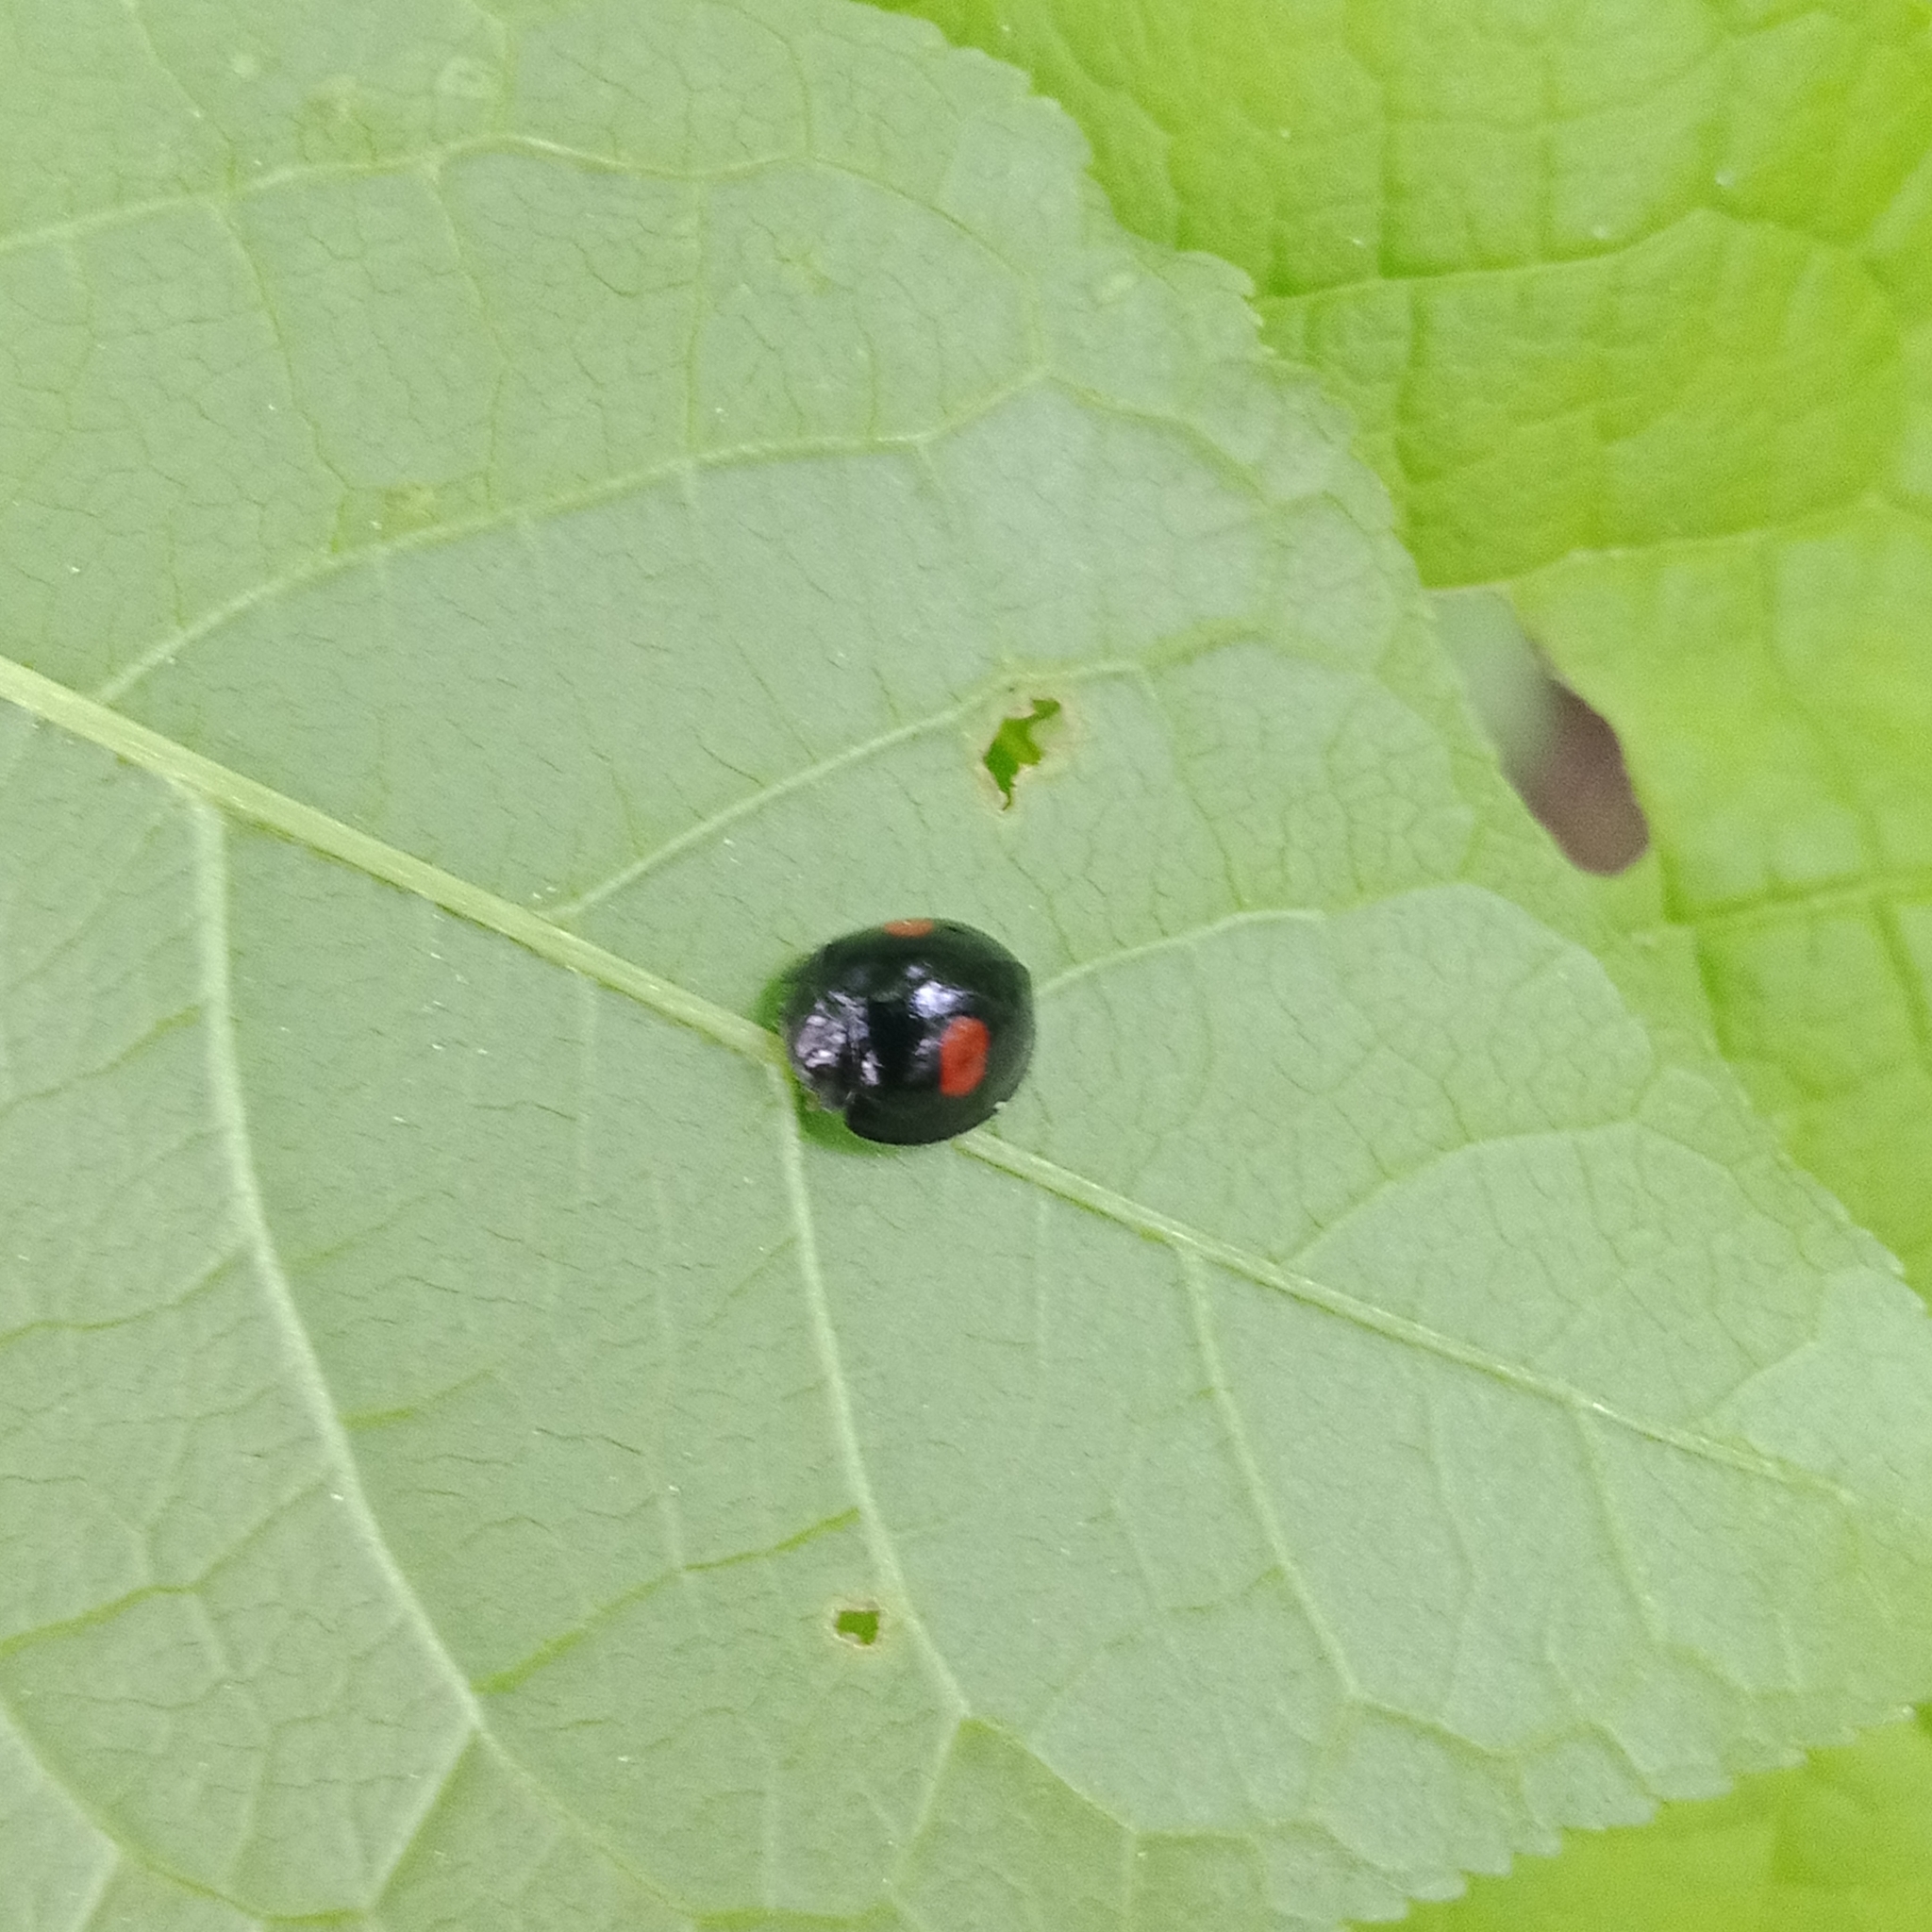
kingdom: Animalia
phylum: Arthropoda
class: Insecta
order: Coleoptera
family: Coccinellidae
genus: Chilocorus
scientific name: Chilocorus renipustulatus
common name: Kidney-spot ladybird
